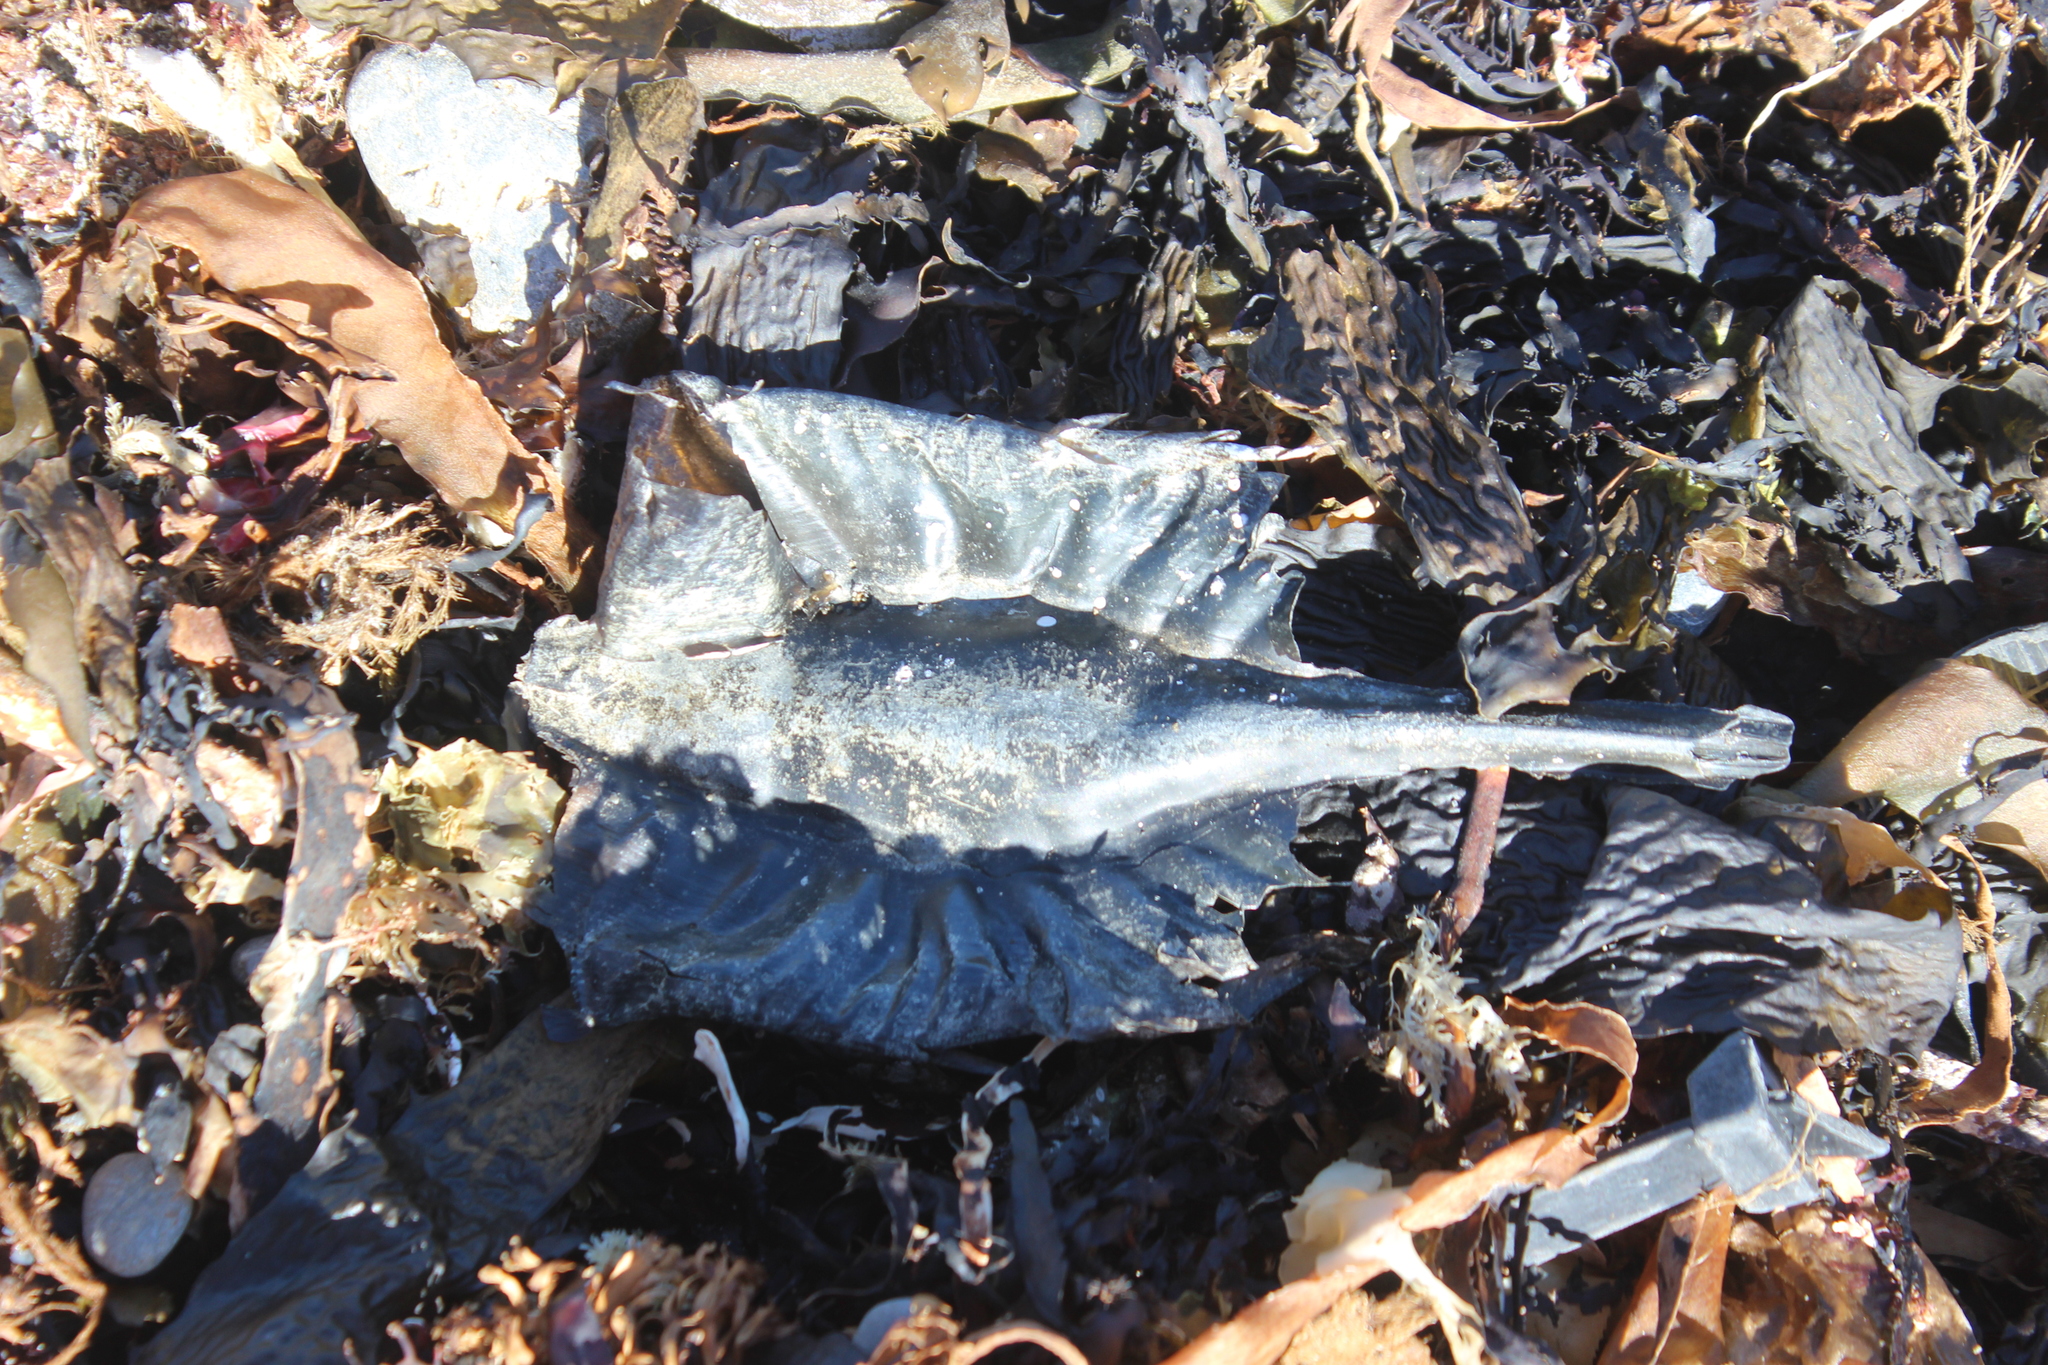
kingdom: Animalia
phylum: Chordata
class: Holocephali
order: Chimaeriformes
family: Callorhinchidae
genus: Callorhinchus
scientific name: Callorhinchus milii
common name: Elephant fish
